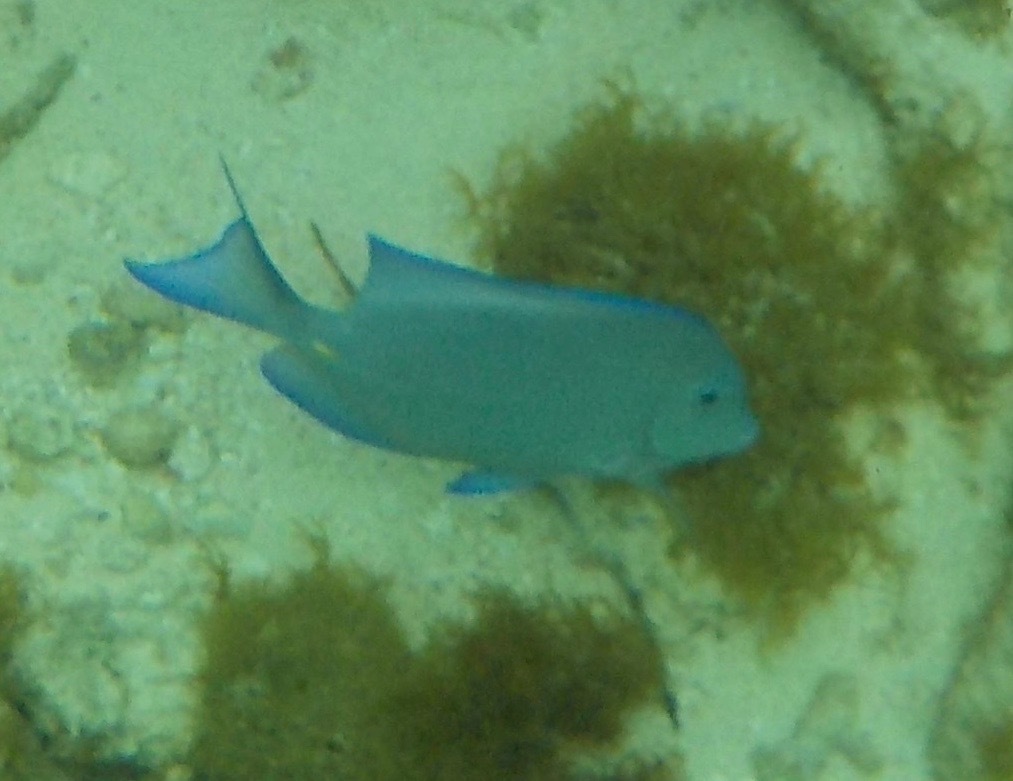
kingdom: Animalia
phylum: Chordata
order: Perciformes
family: Acanthuridae
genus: Acanthurus
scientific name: Acanthurus coeruleus
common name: Blue tang
